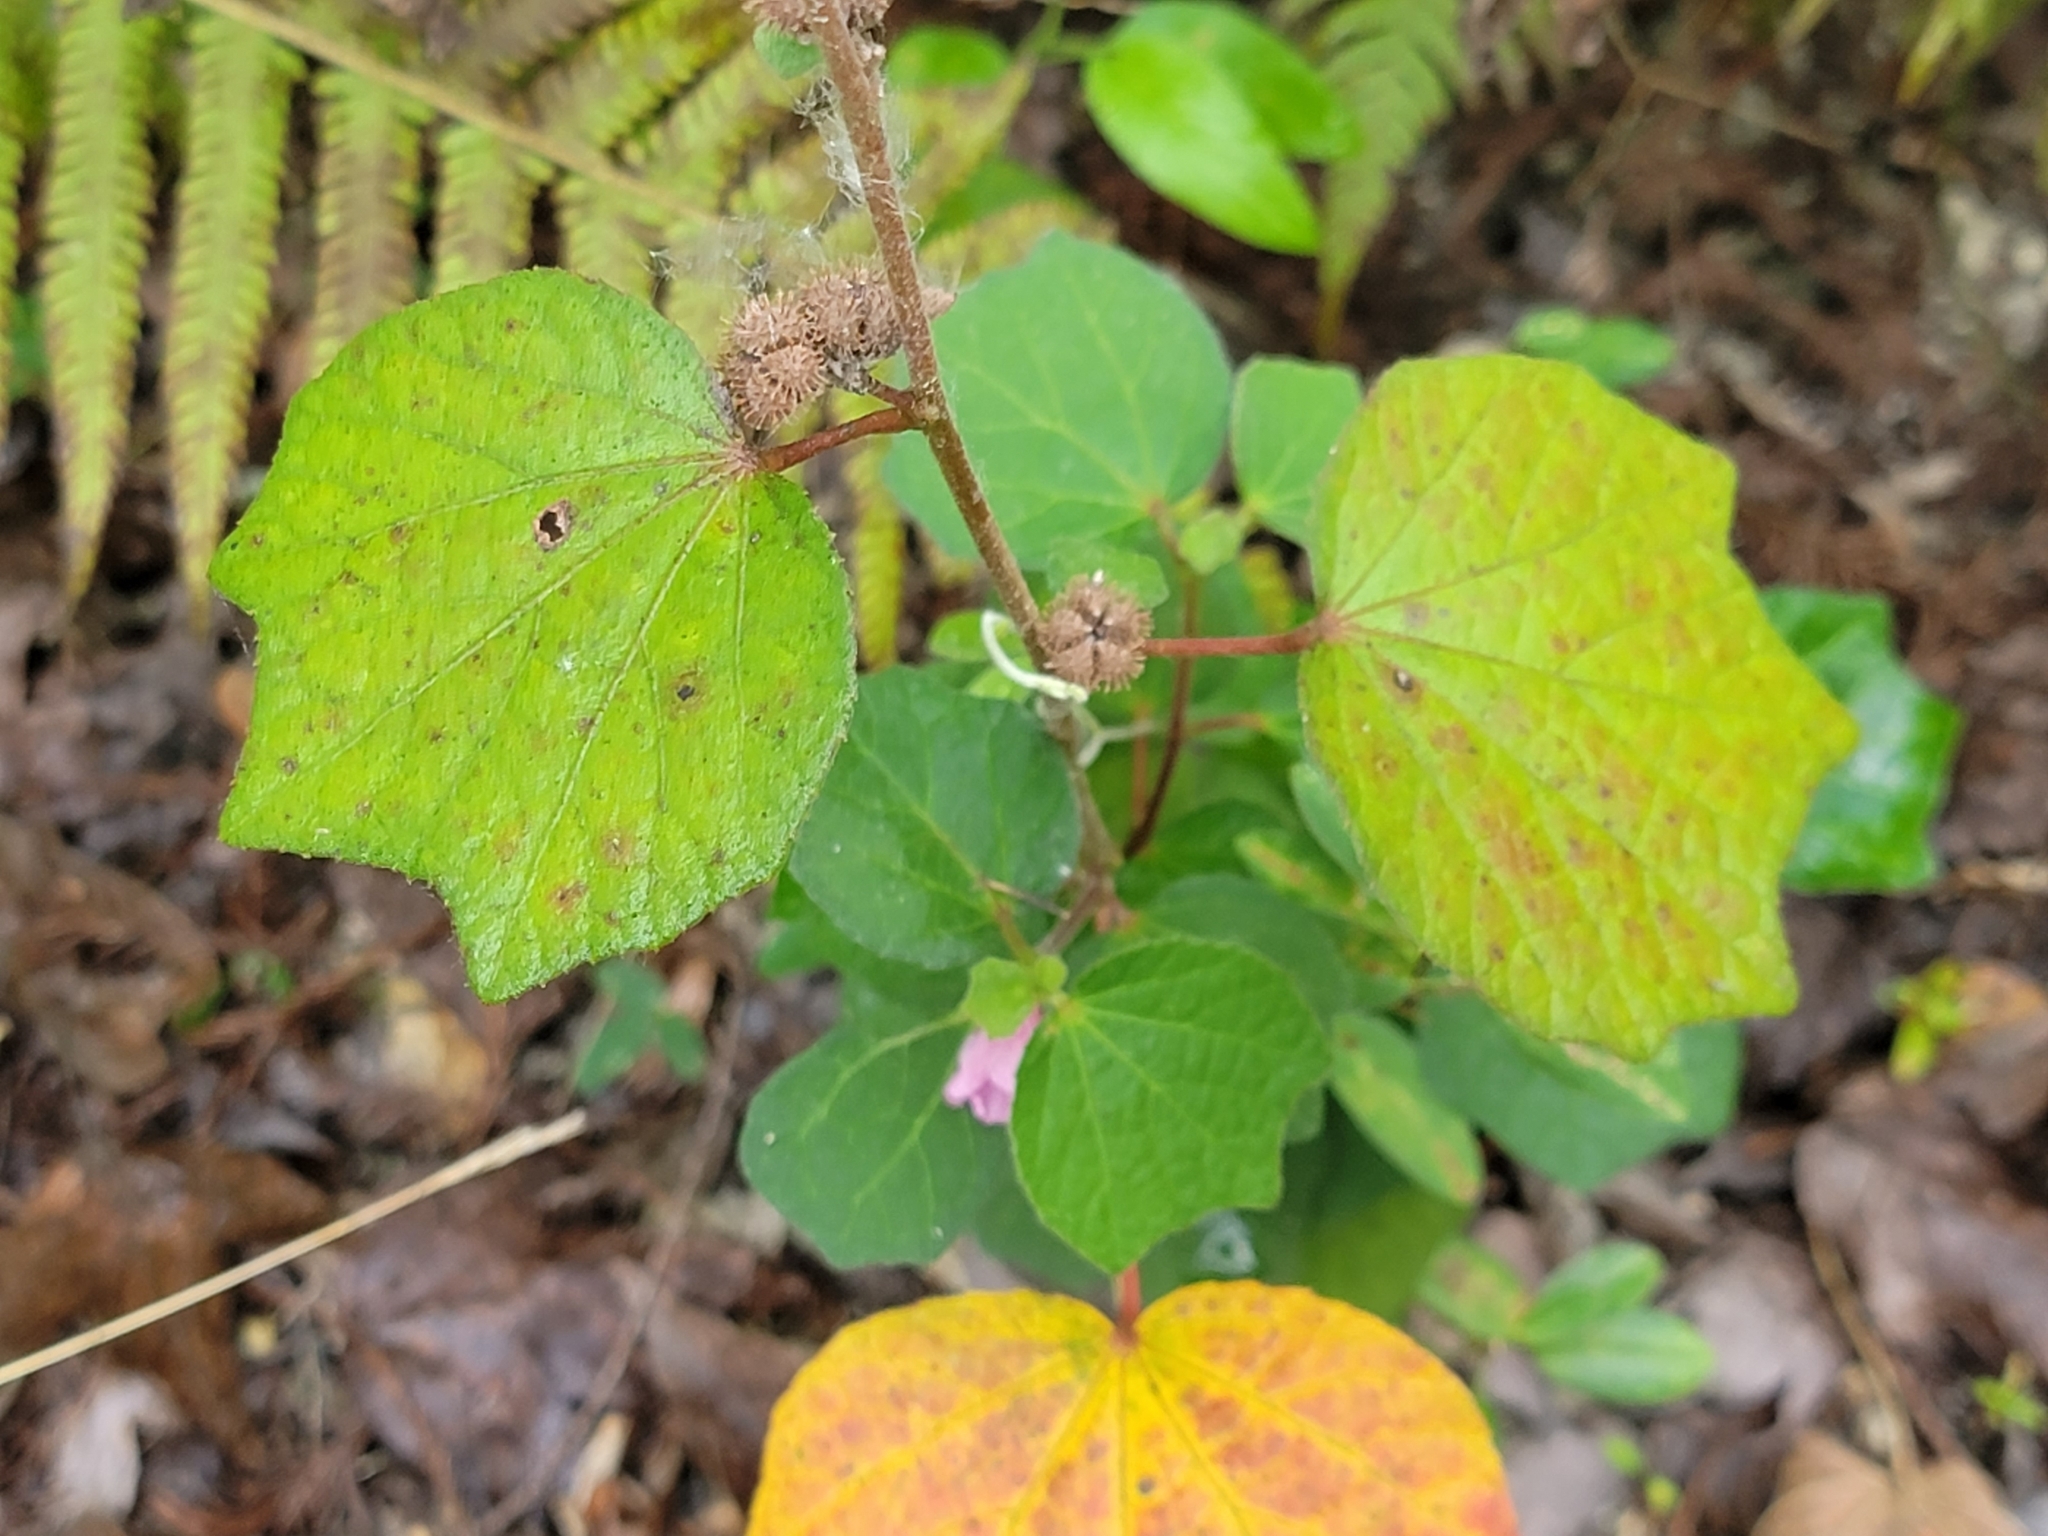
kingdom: Plantae
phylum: Tracheophyta
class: Magnoliopsida
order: Malvales
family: Malvaceae
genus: Urena
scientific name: Urena lobata
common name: Caesarweed
